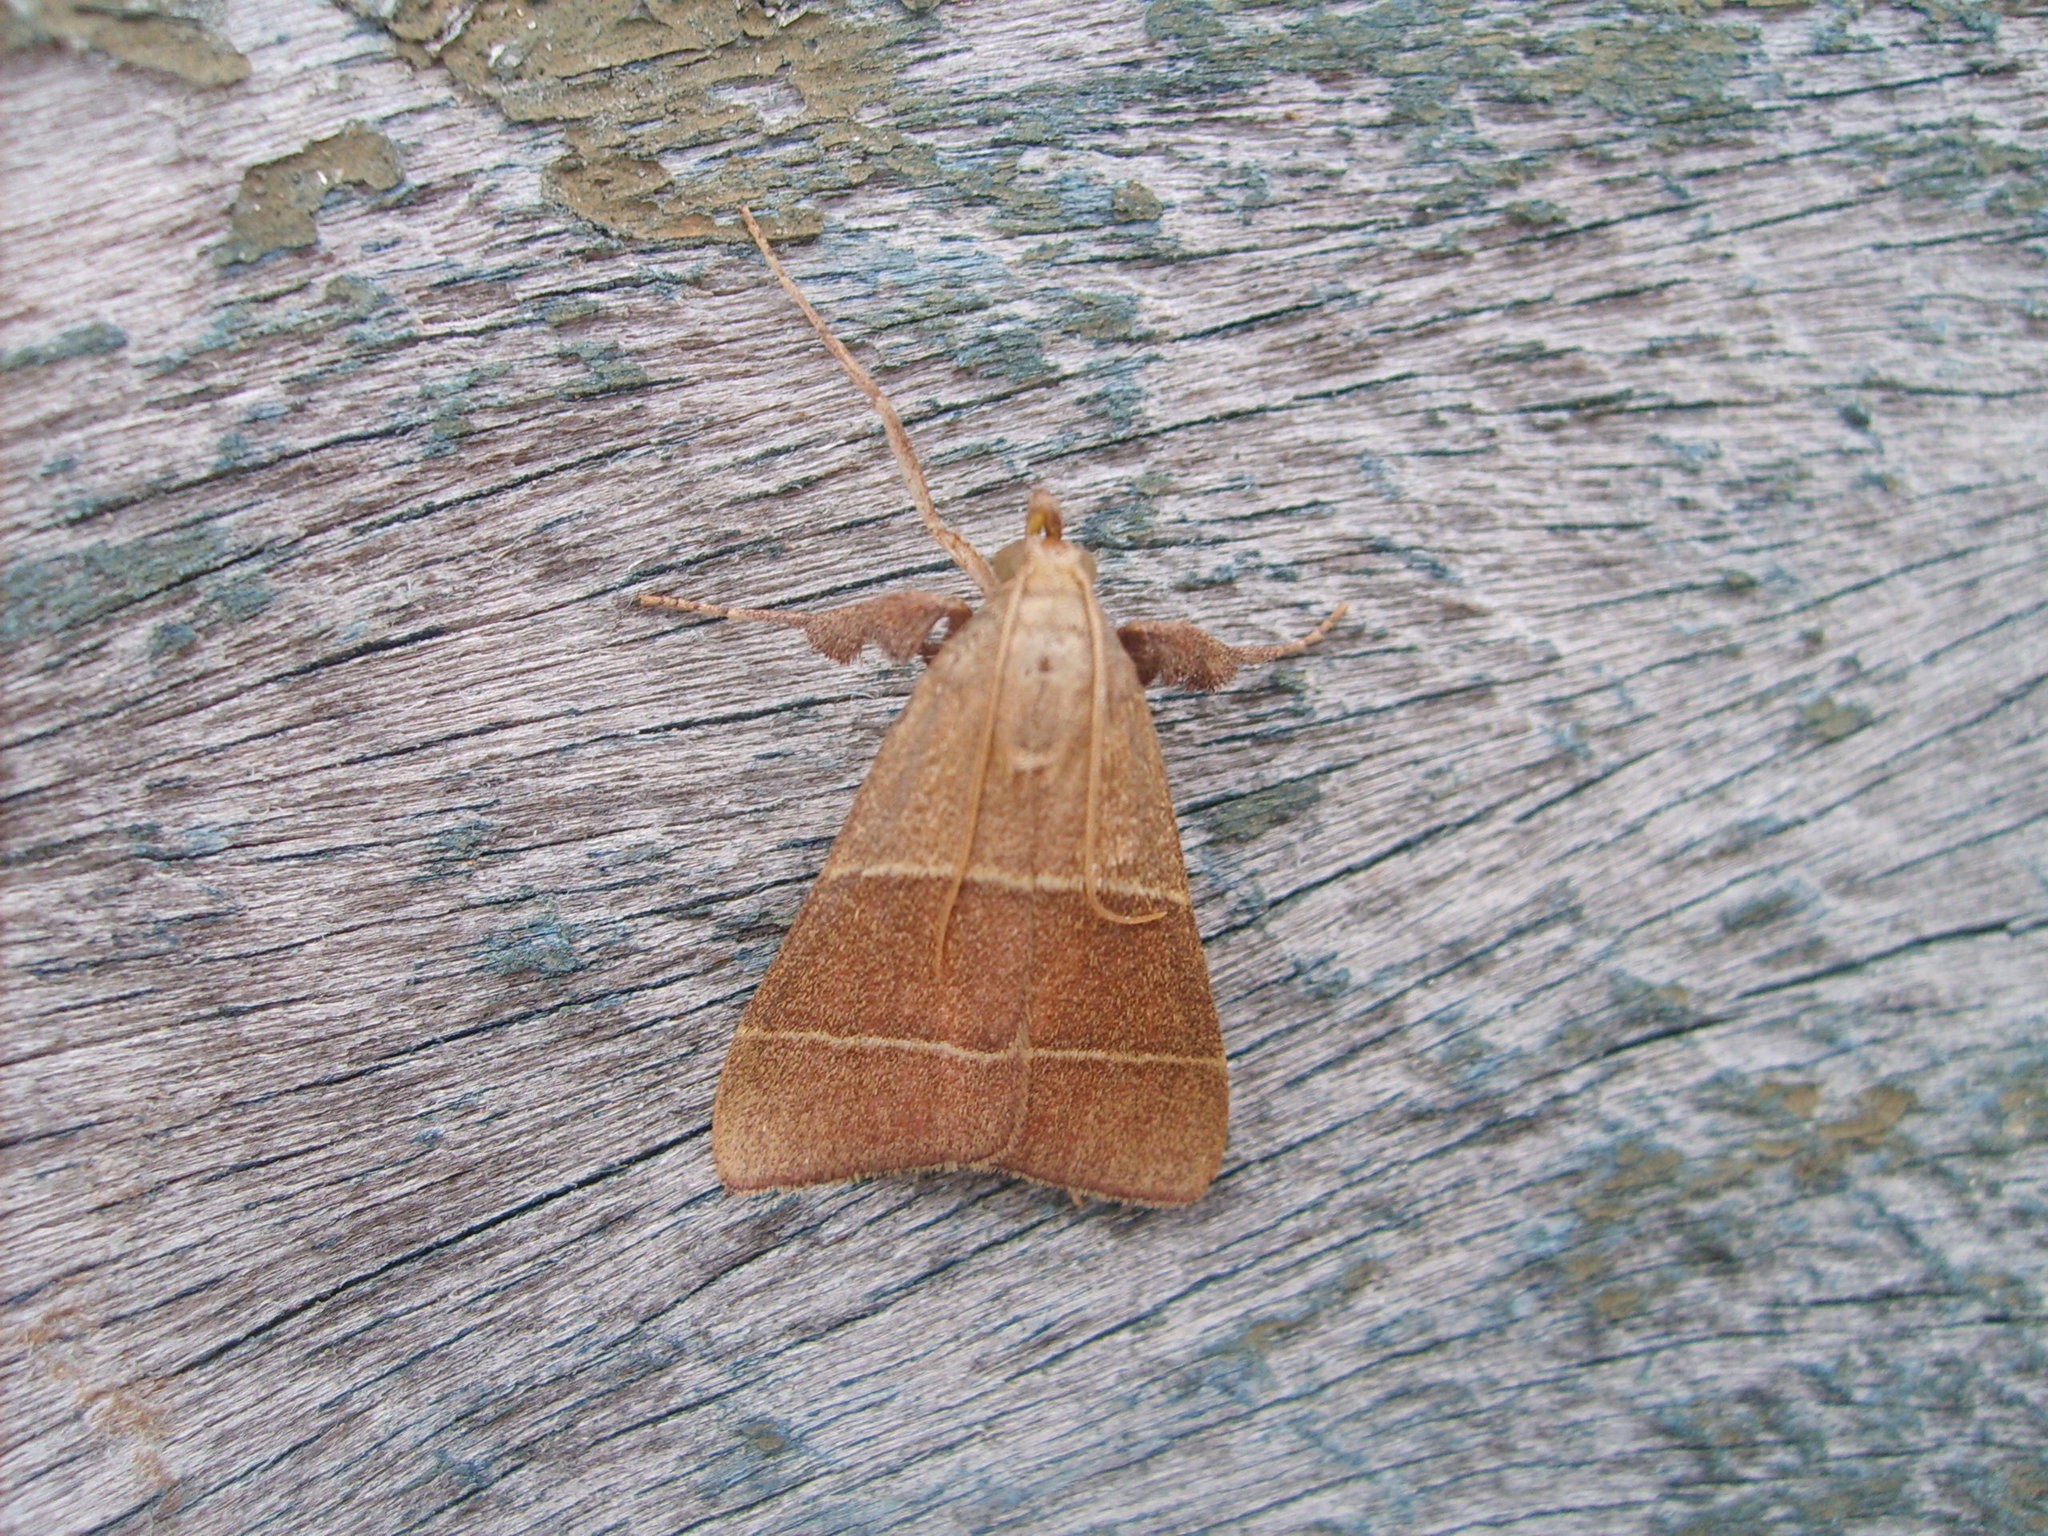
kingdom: Animalia
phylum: Arthropoda
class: Insecta
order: Lepidoptera
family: Pyralidae
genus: Parachma
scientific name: Parachma ochracealis
